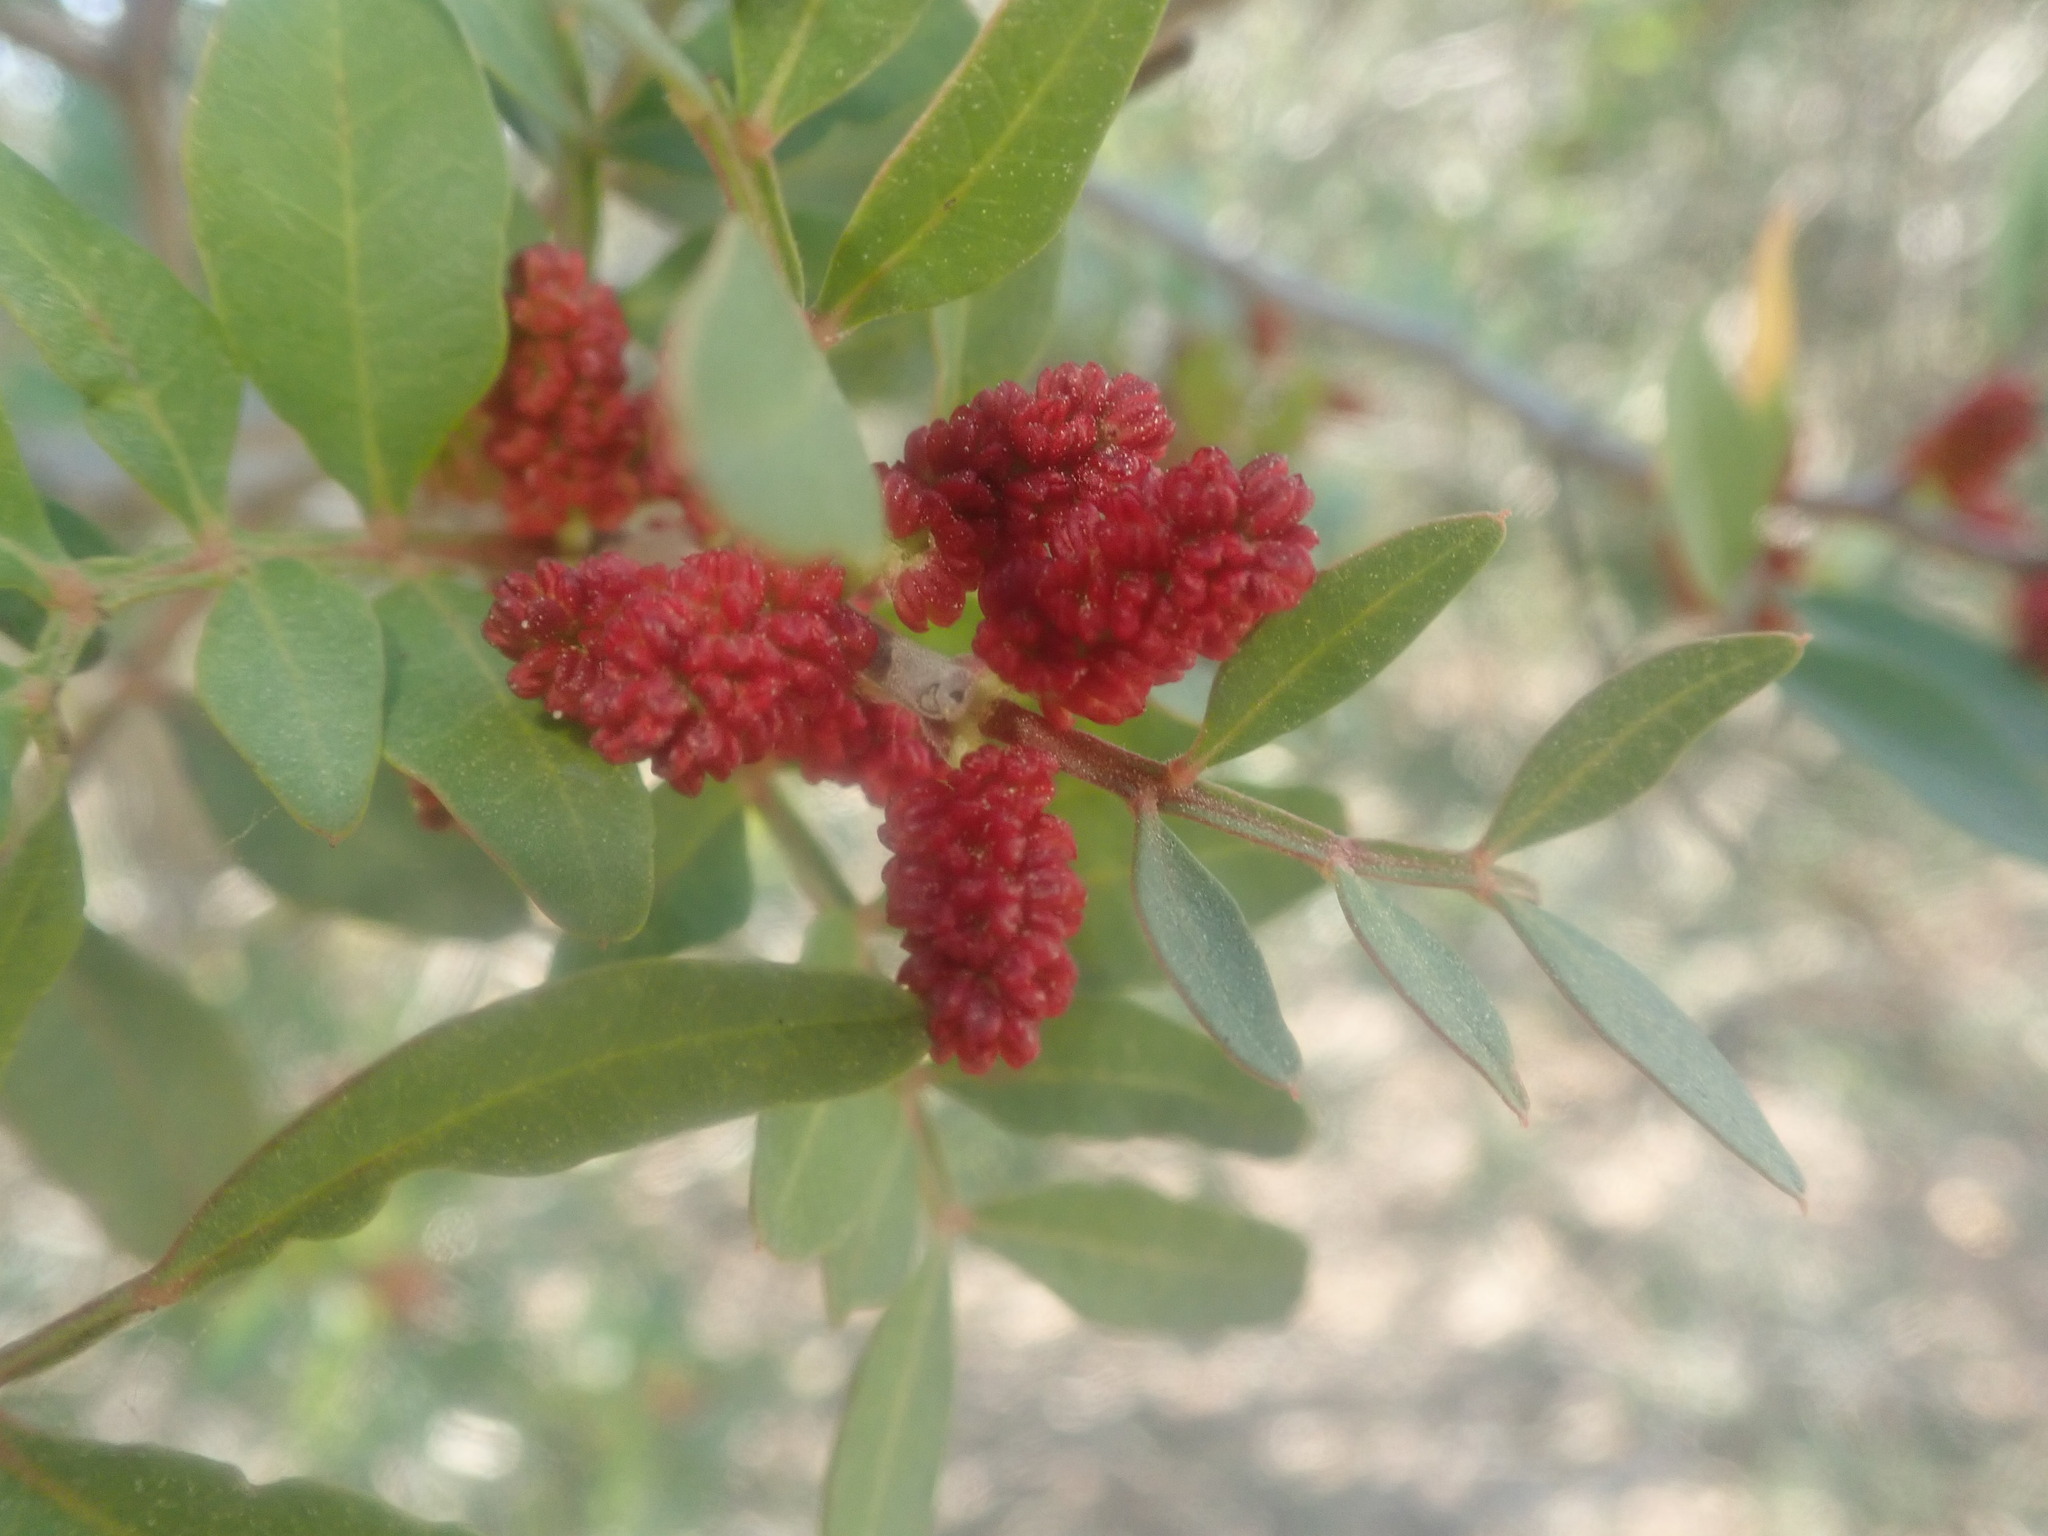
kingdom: Plantae
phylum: Tracheophyta
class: Magnoliopsida
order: Sapindales
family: Anacardiaceae
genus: Pistacia
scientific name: Pistacia lentiscus
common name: Lentisk
